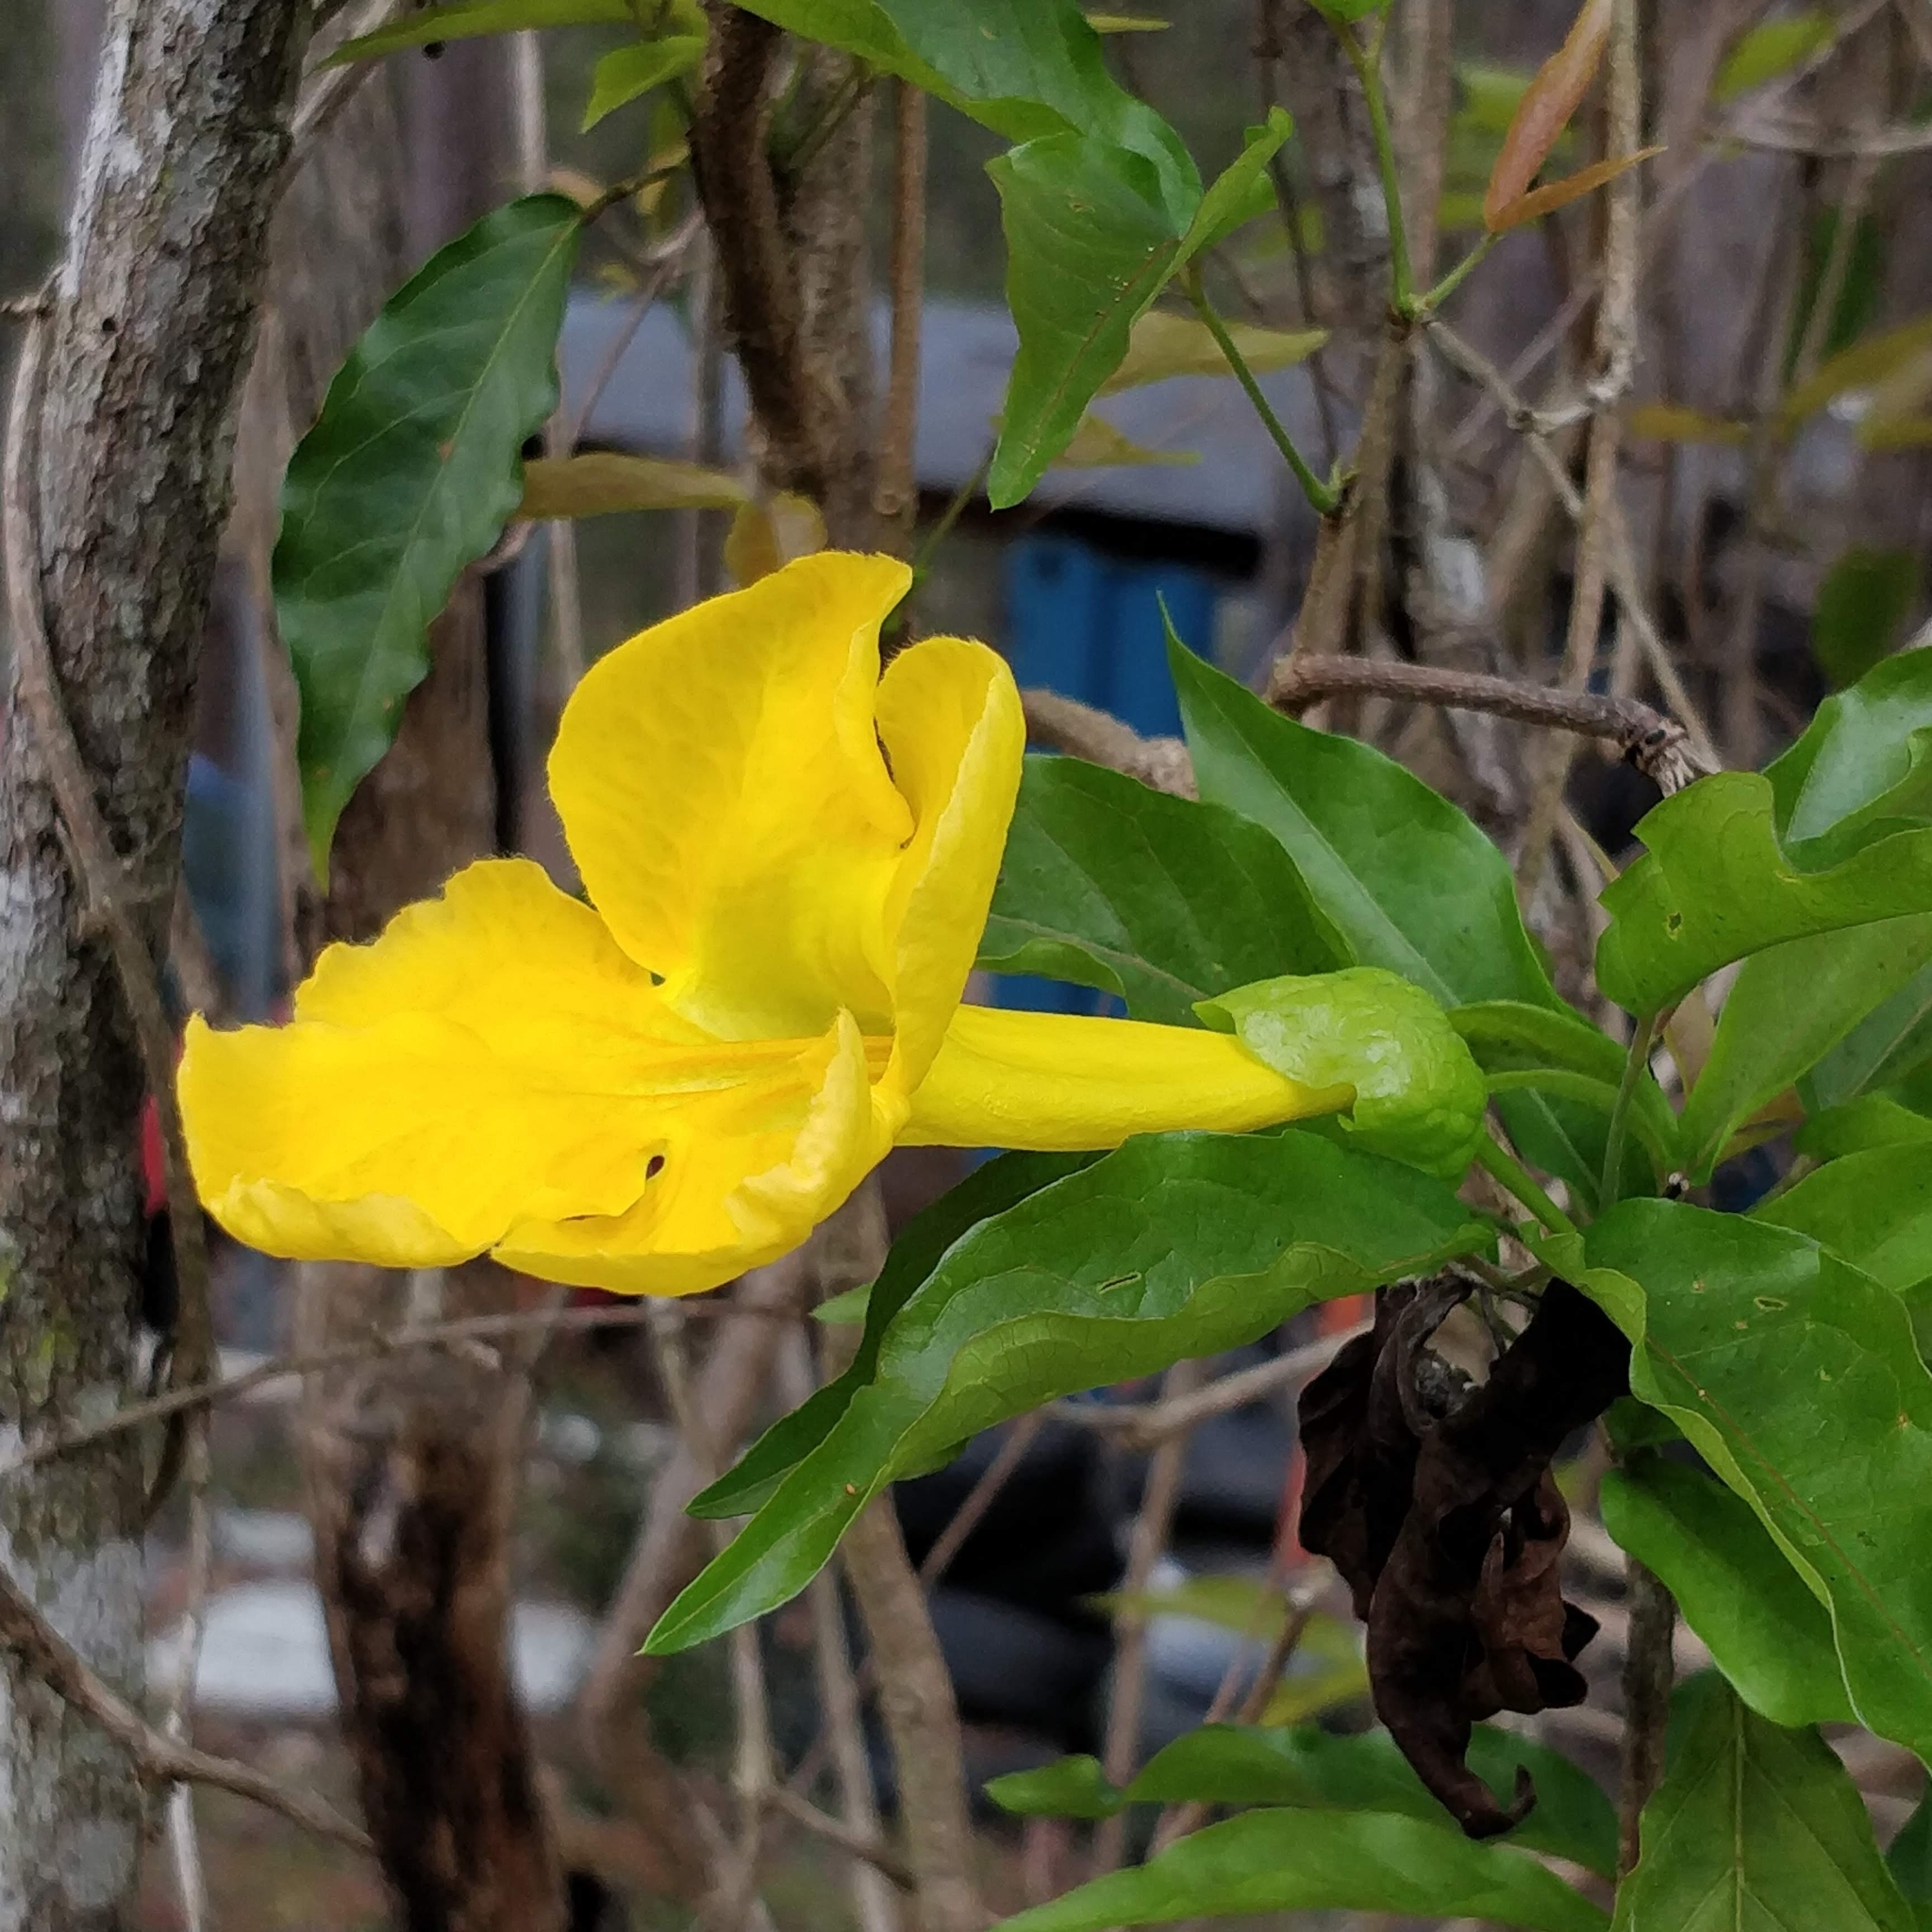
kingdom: Plantae
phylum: Tracheophyta
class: Magnoliopsida
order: Lamiales
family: Bignoniaceae
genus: Dolichandra
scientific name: Dolichandra unguis-cati
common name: Catclaw vine
